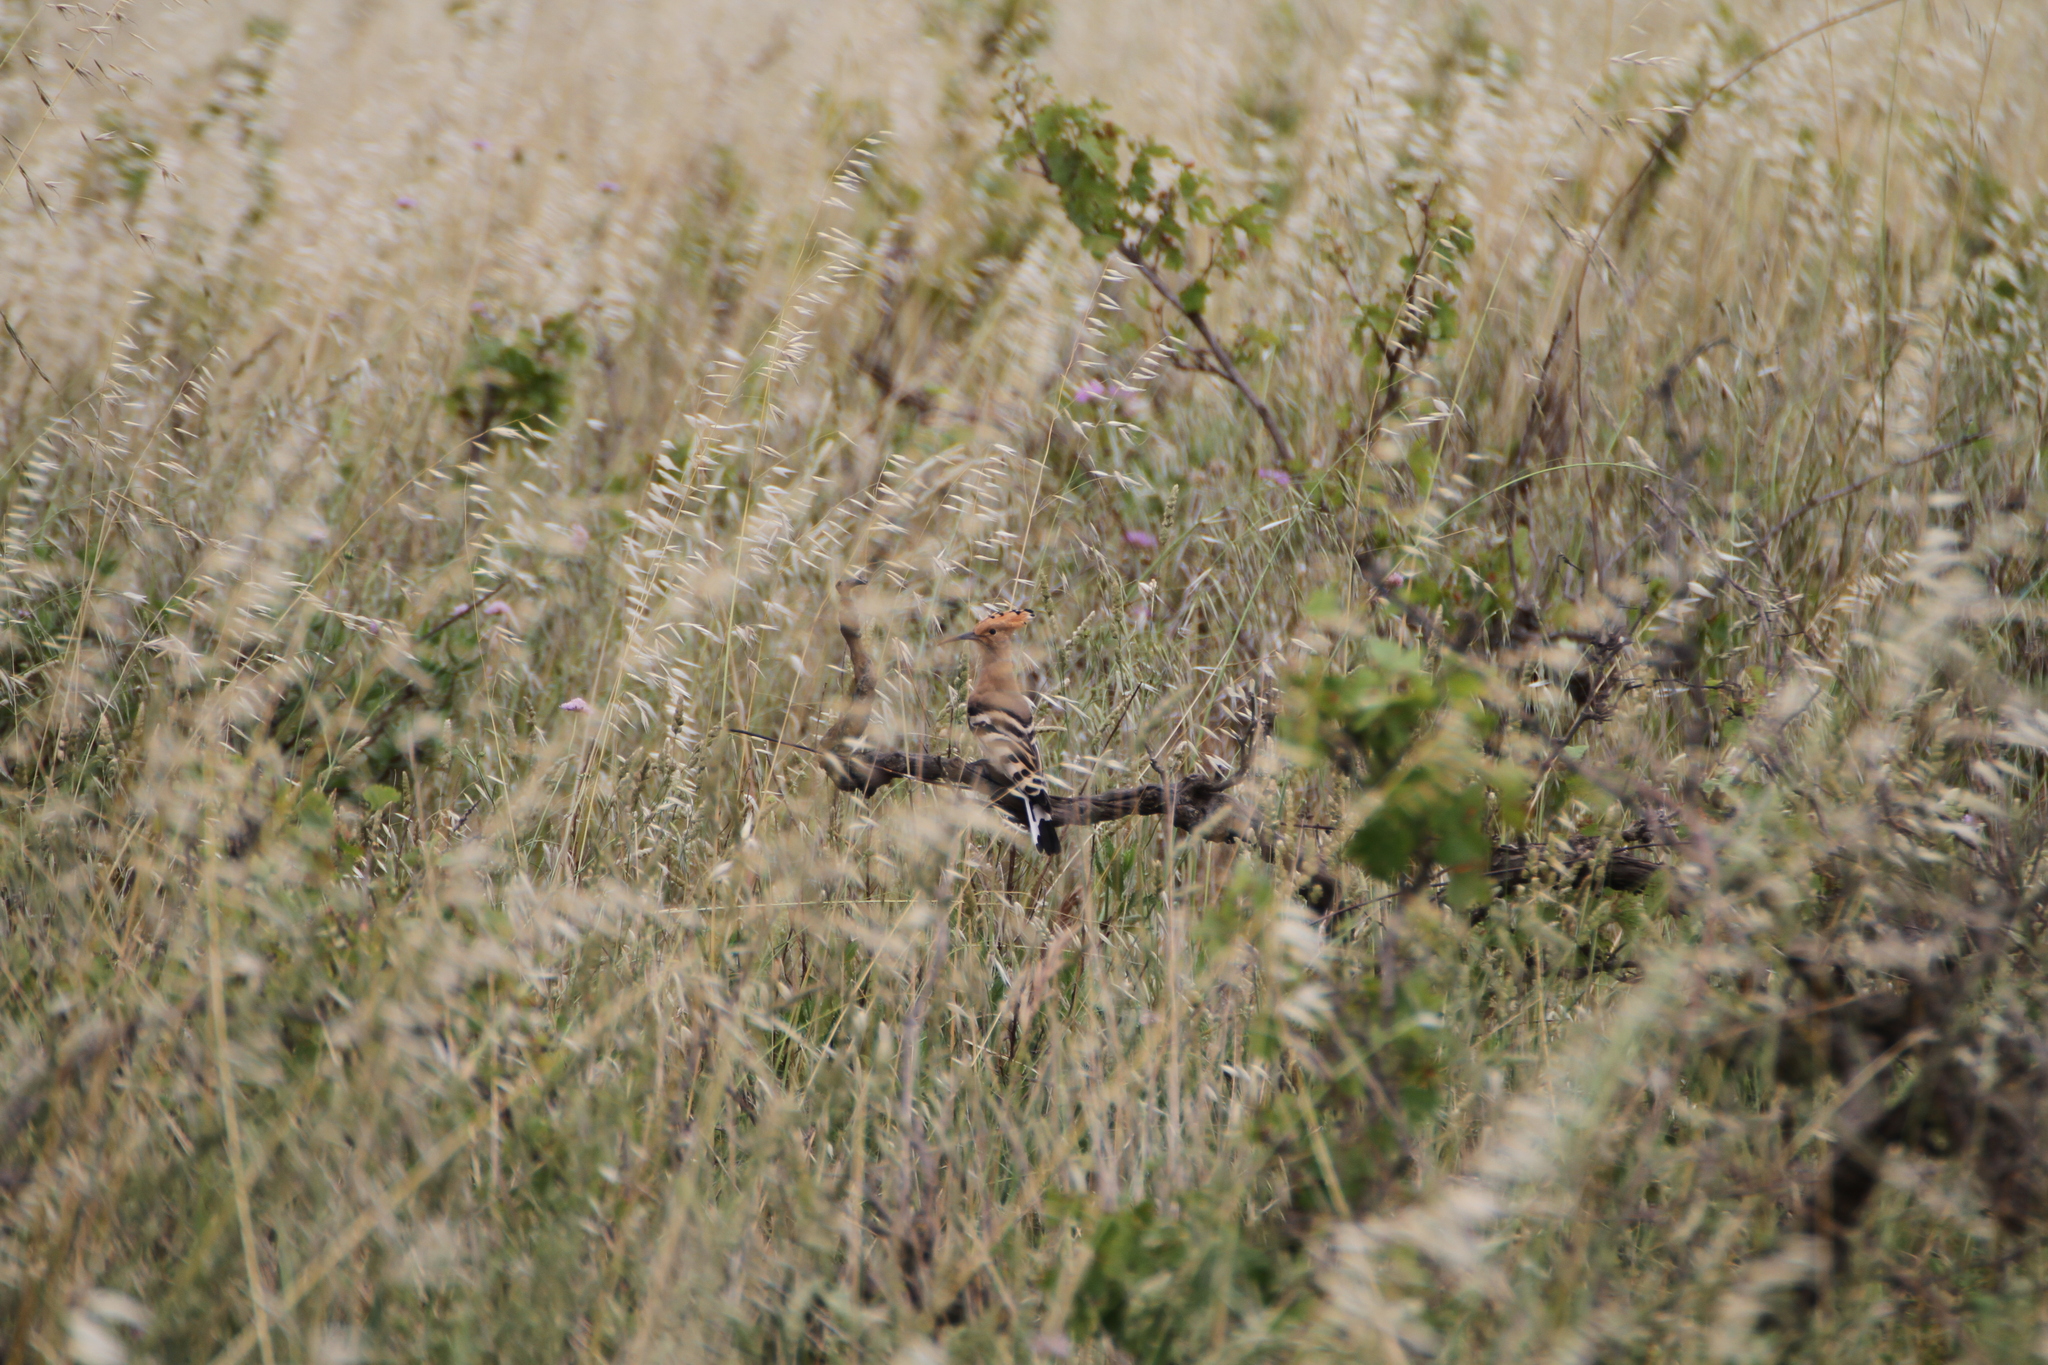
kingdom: Animalia
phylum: Chordata
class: Aves
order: Bucerotiformes
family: Upupidae
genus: Upupa
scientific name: Upupa epops
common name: Eurasian hoopoe
